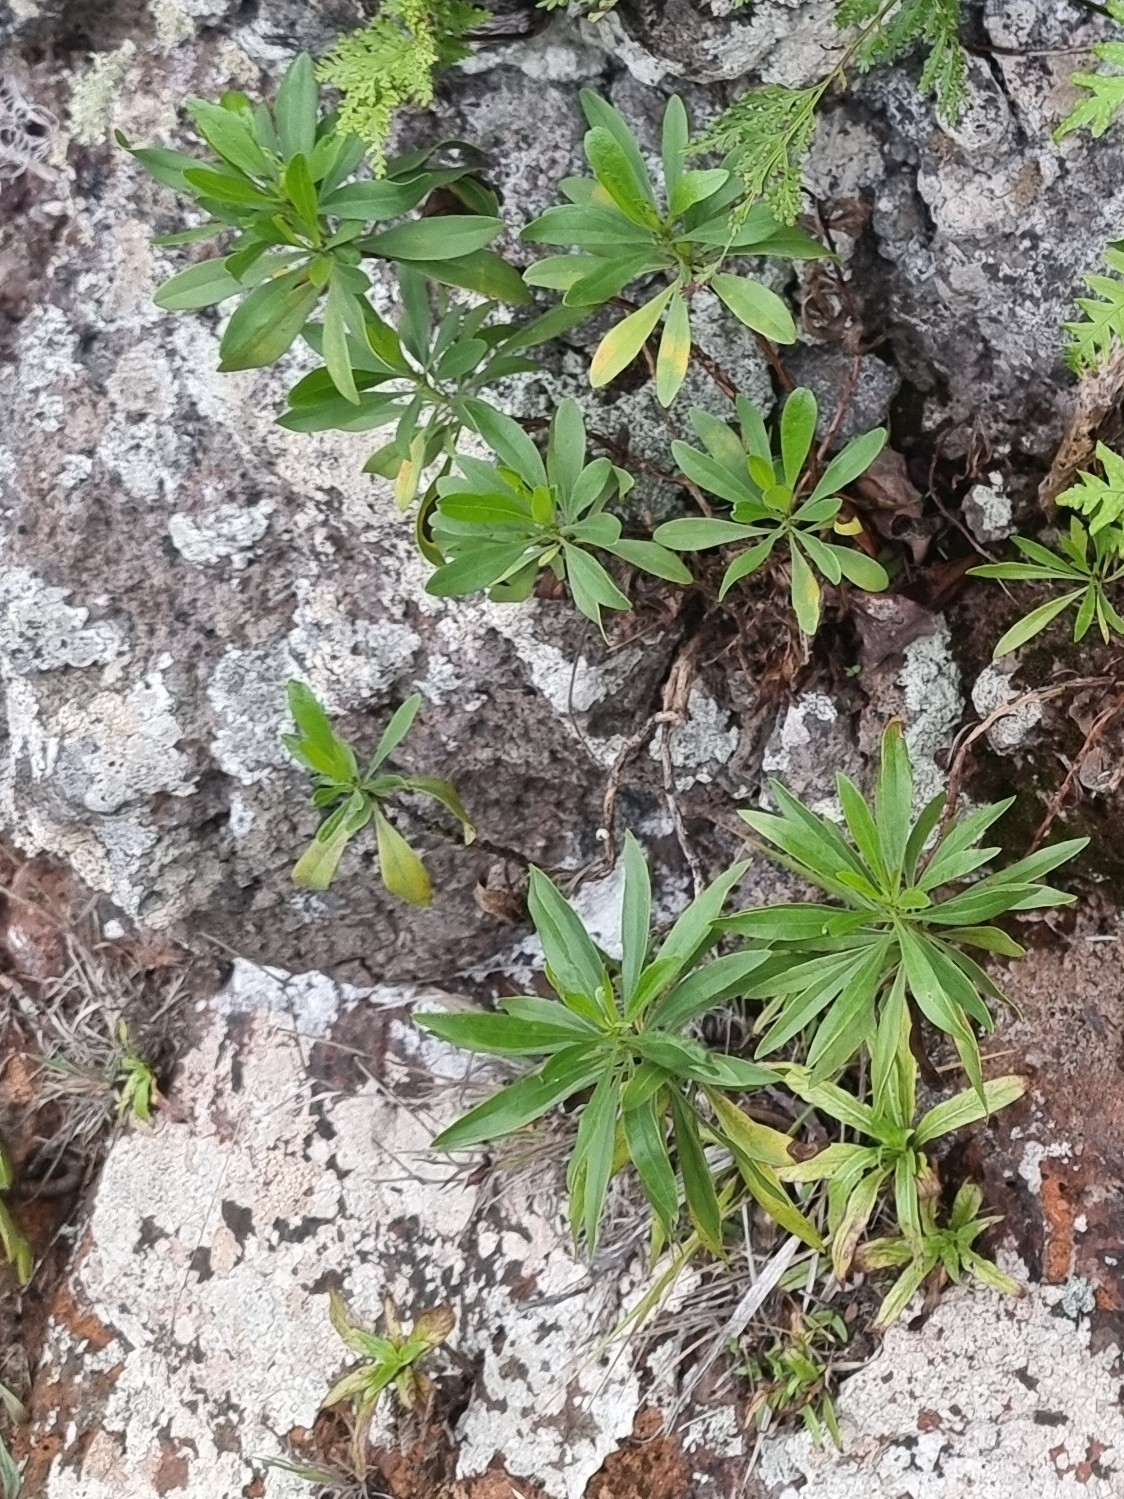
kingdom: Plantae
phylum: Tracheophyta
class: Magnoliopsida
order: Lamiales
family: Plantaginaceae
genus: Globularia
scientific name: Globularia salicina
